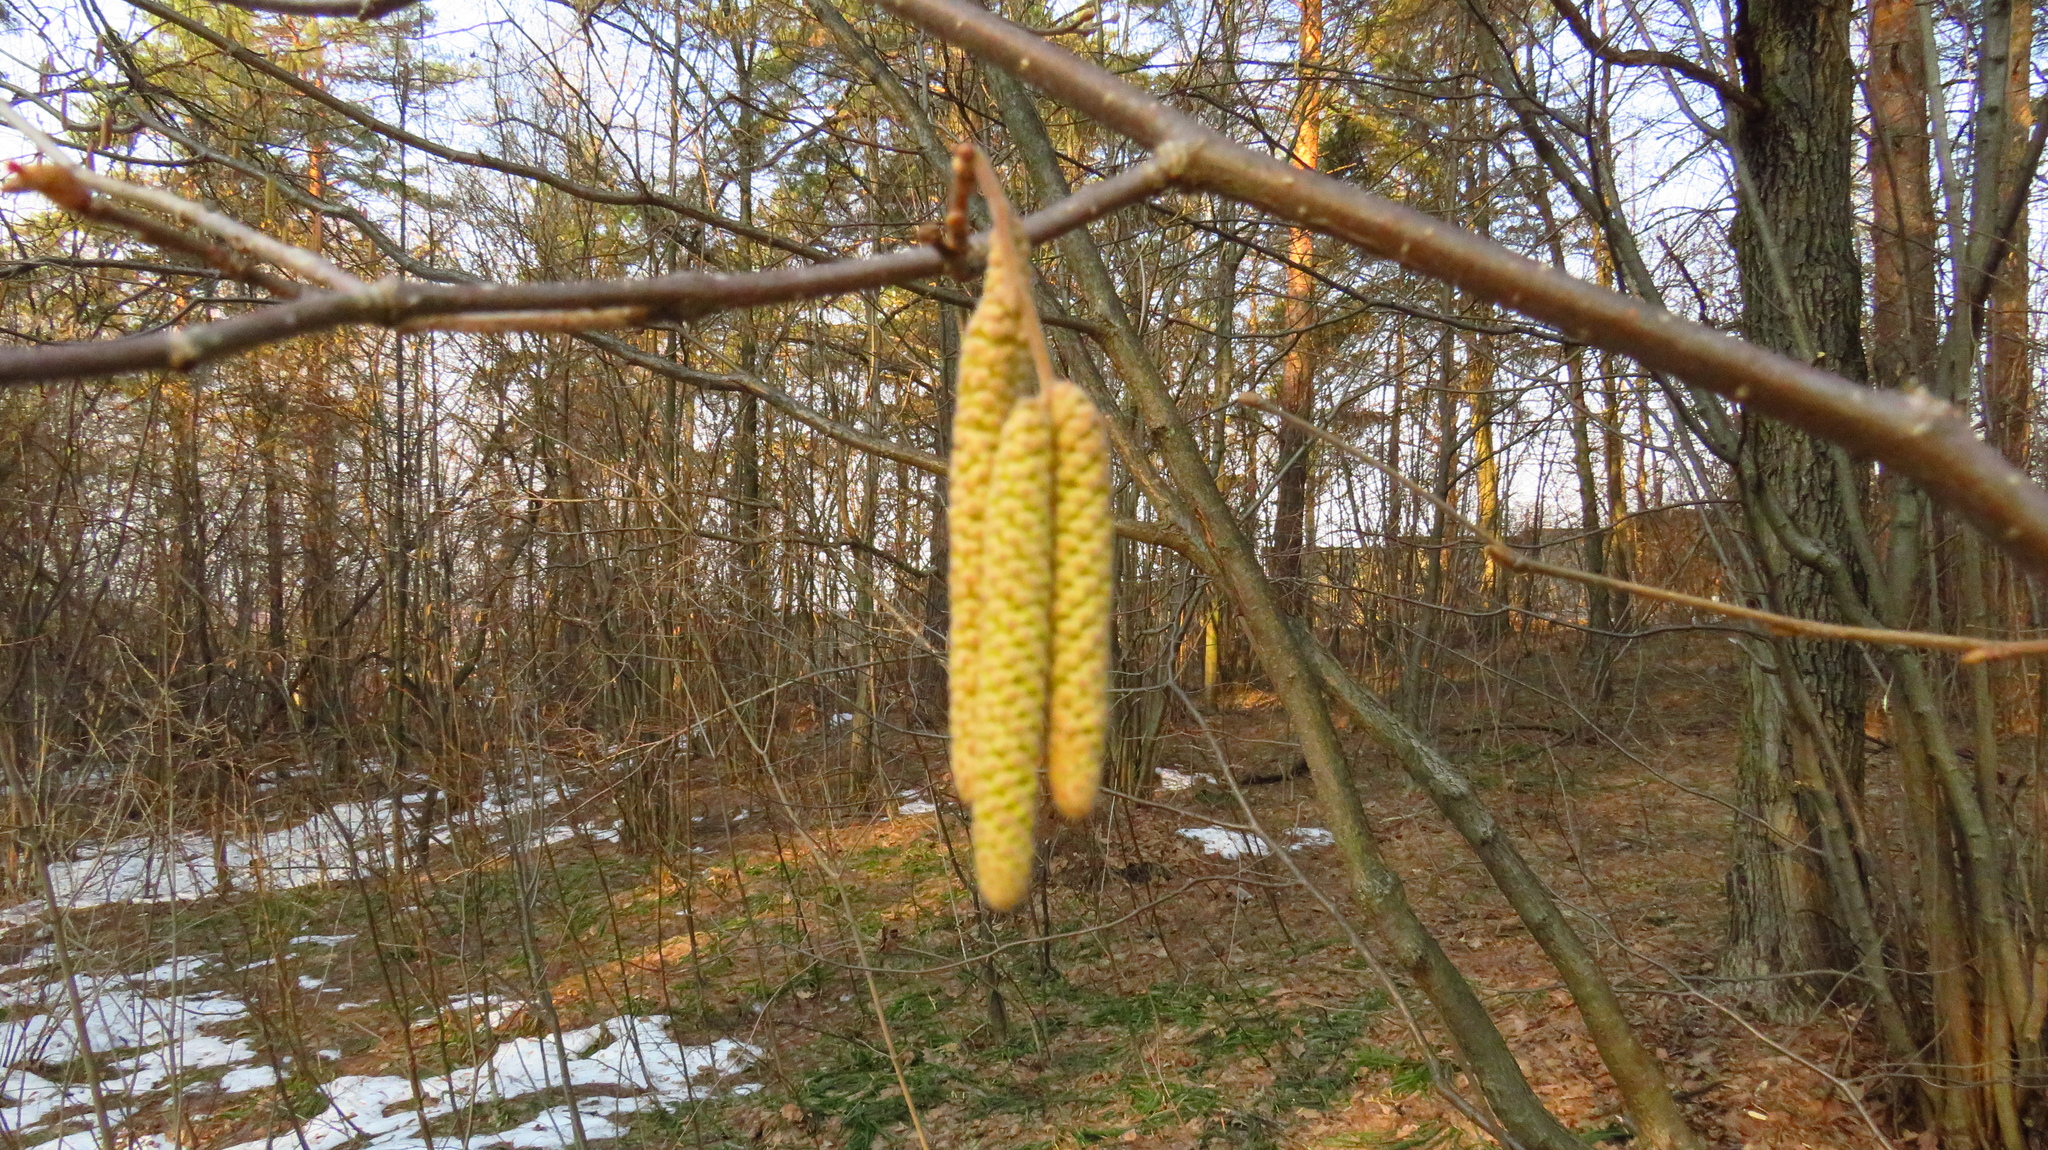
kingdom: Plantae
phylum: Tracheophyta
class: Magnoliopsida
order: Fagales
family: Betulaceae
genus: Corylus
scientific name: Corylus avellana
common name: European hazel
